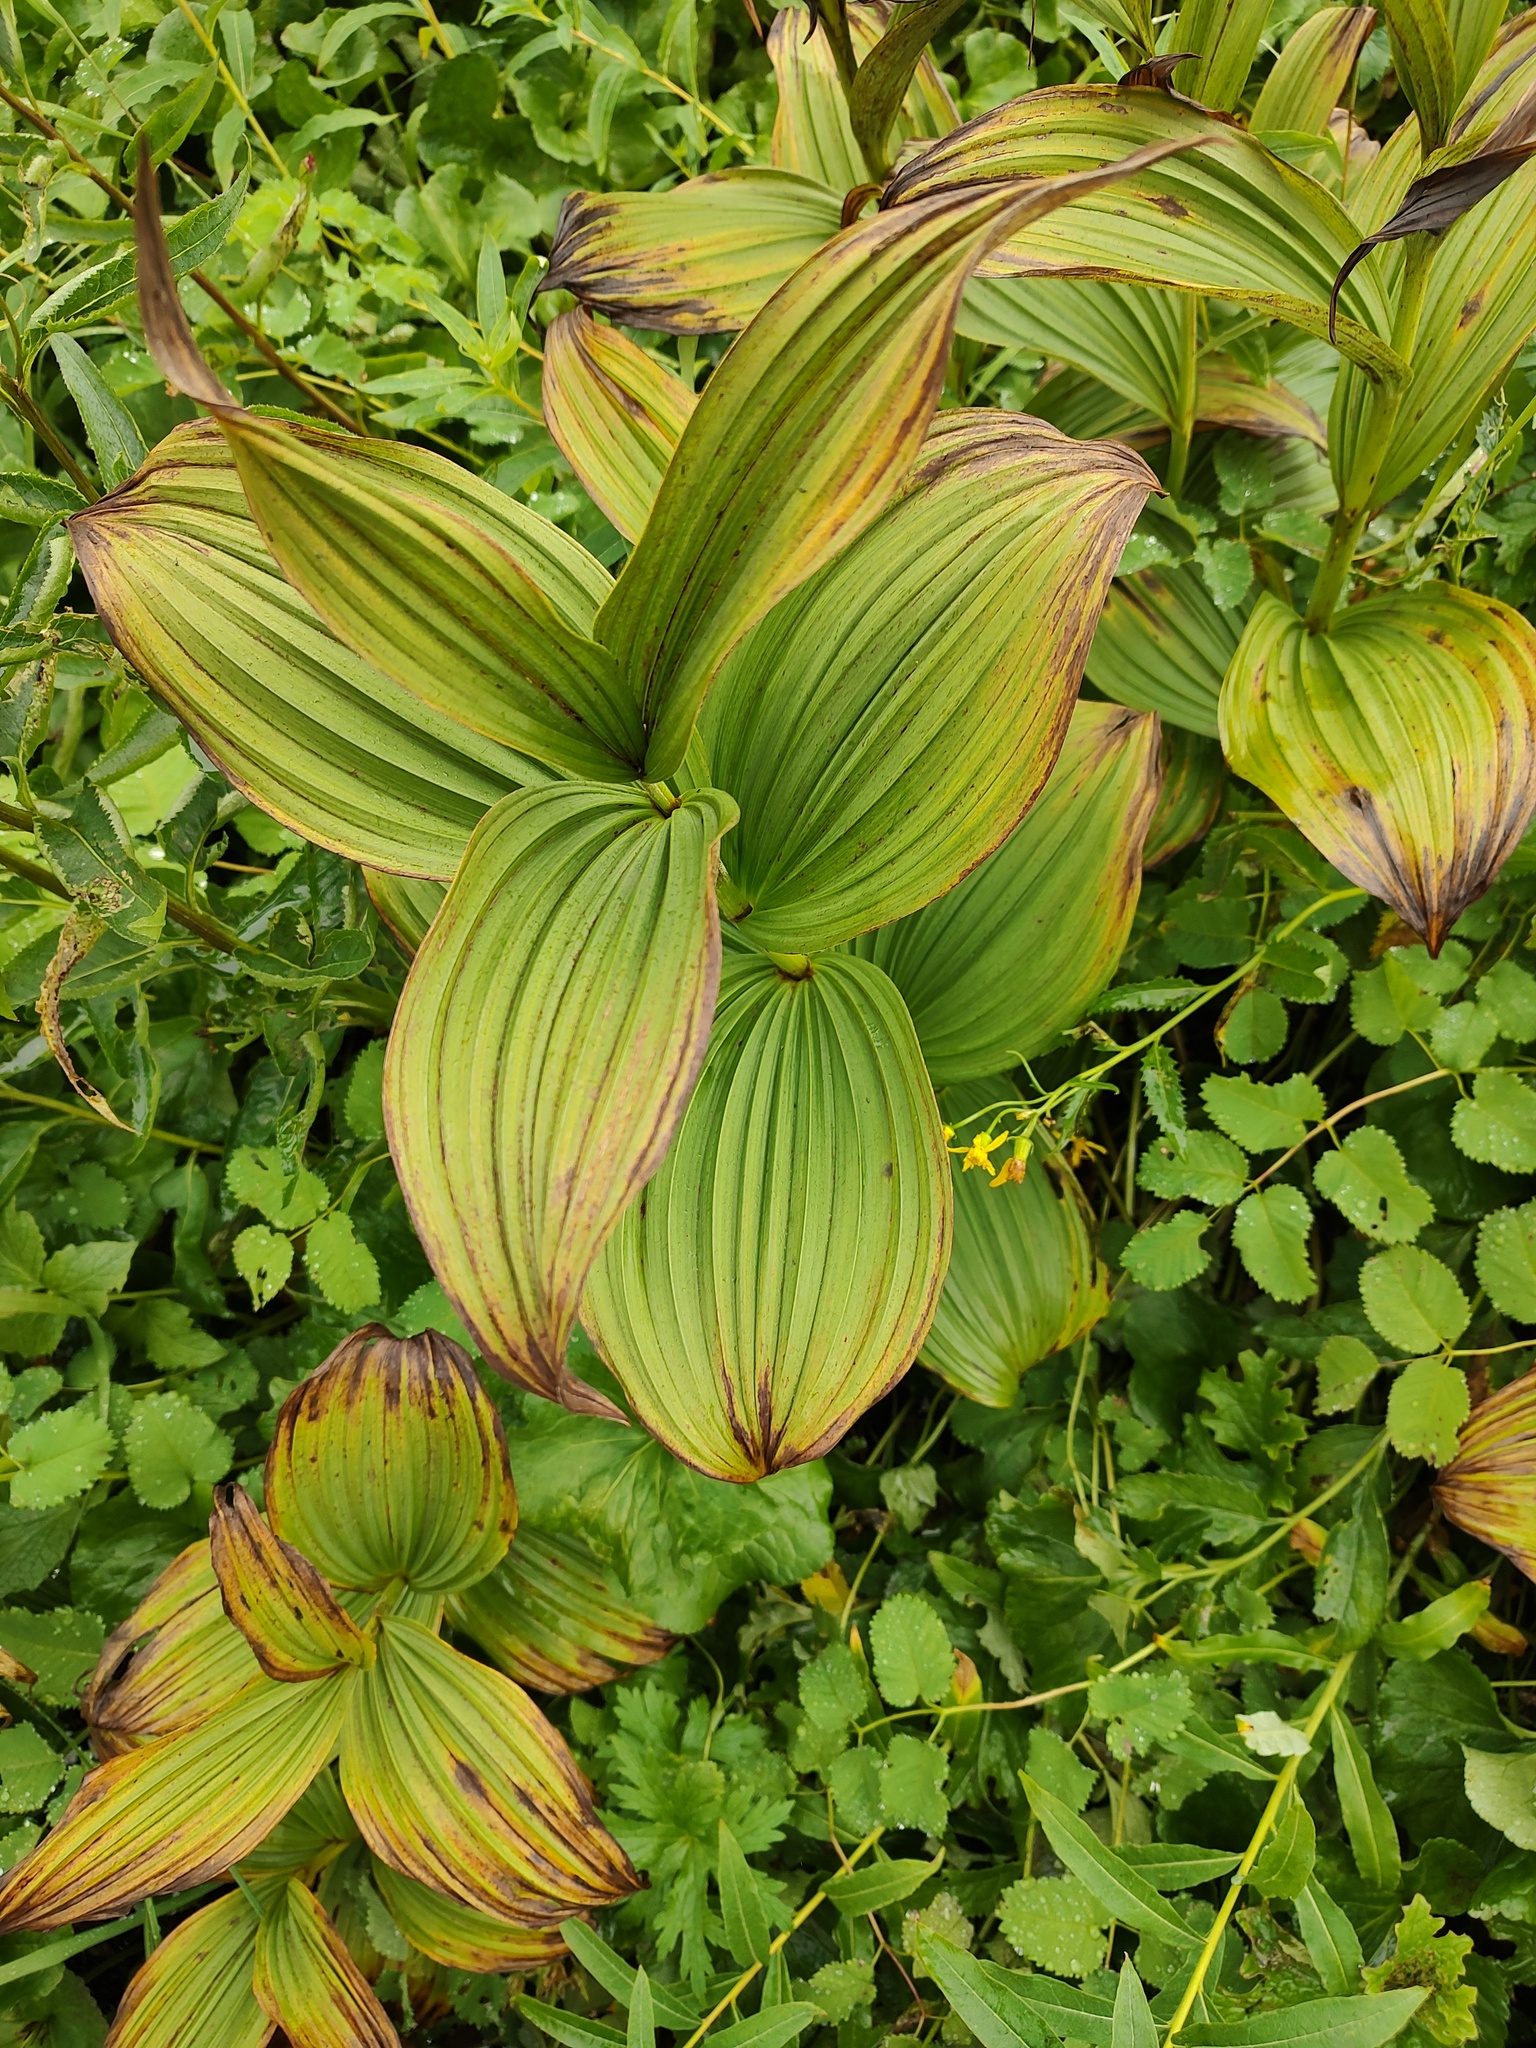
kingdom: Plantae
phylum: Tracheophyta
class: Liliopsida
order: Liliales
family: Melanthiaceae
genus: Veratrum
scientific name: Veratrum viride
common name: American false hellebore
